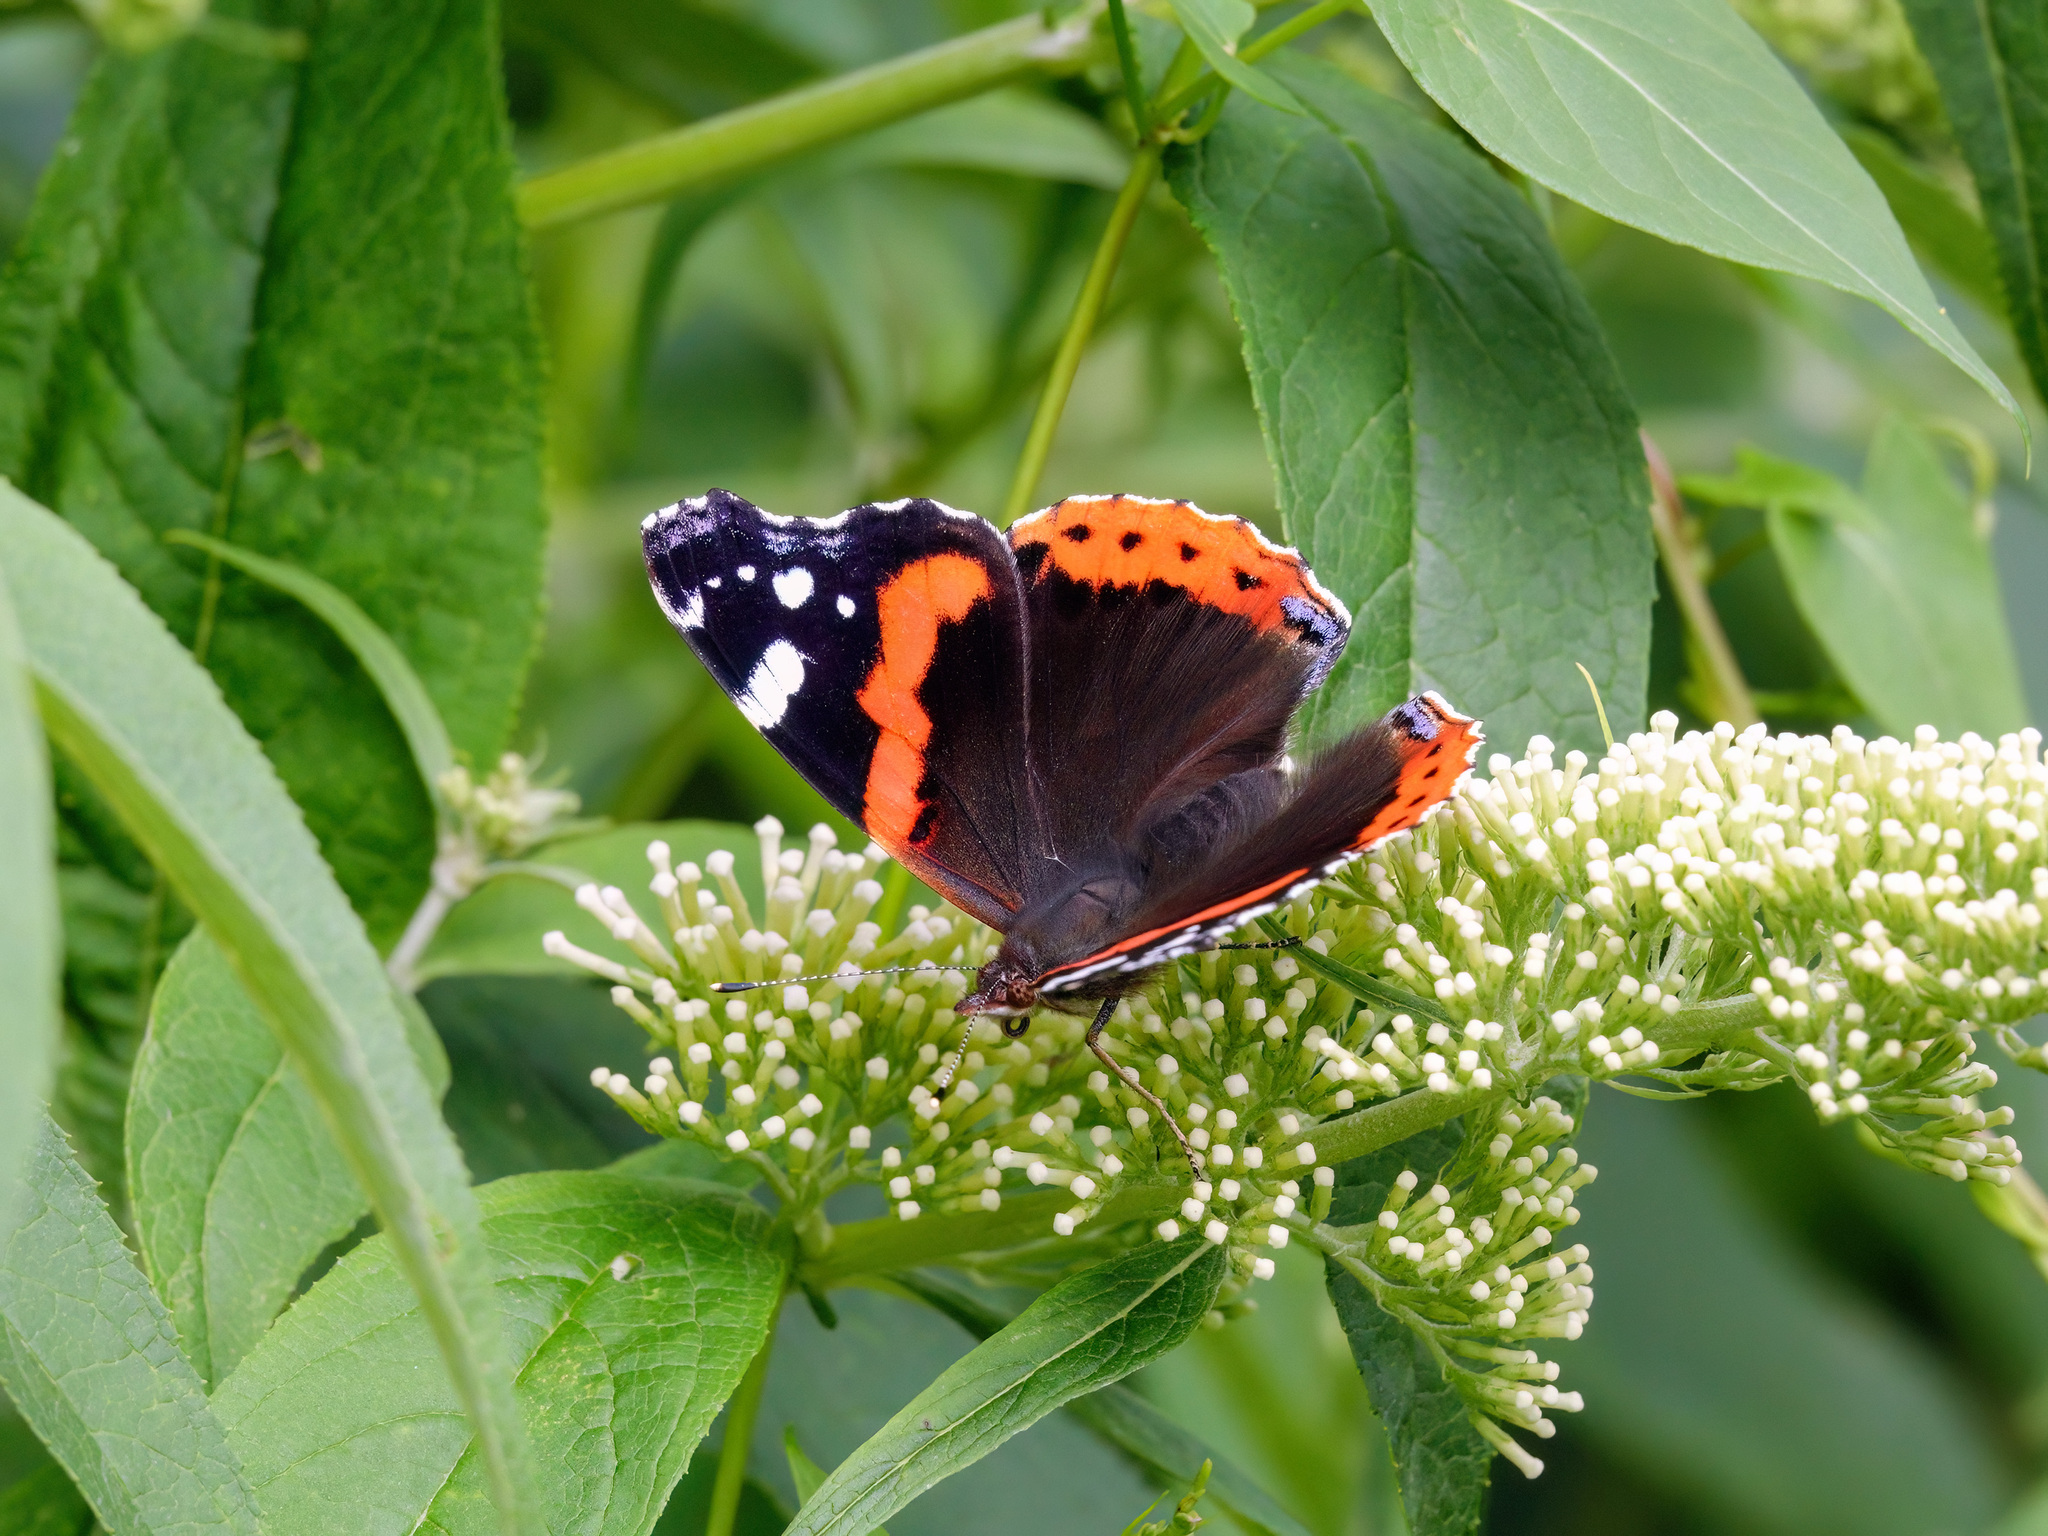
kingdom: Animalia
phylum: Arthropoda
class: Insecta
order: Lepidoptera
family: Nymphalidae
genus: Vanessa
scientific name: Vanessa atalanta
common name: Red admiral
